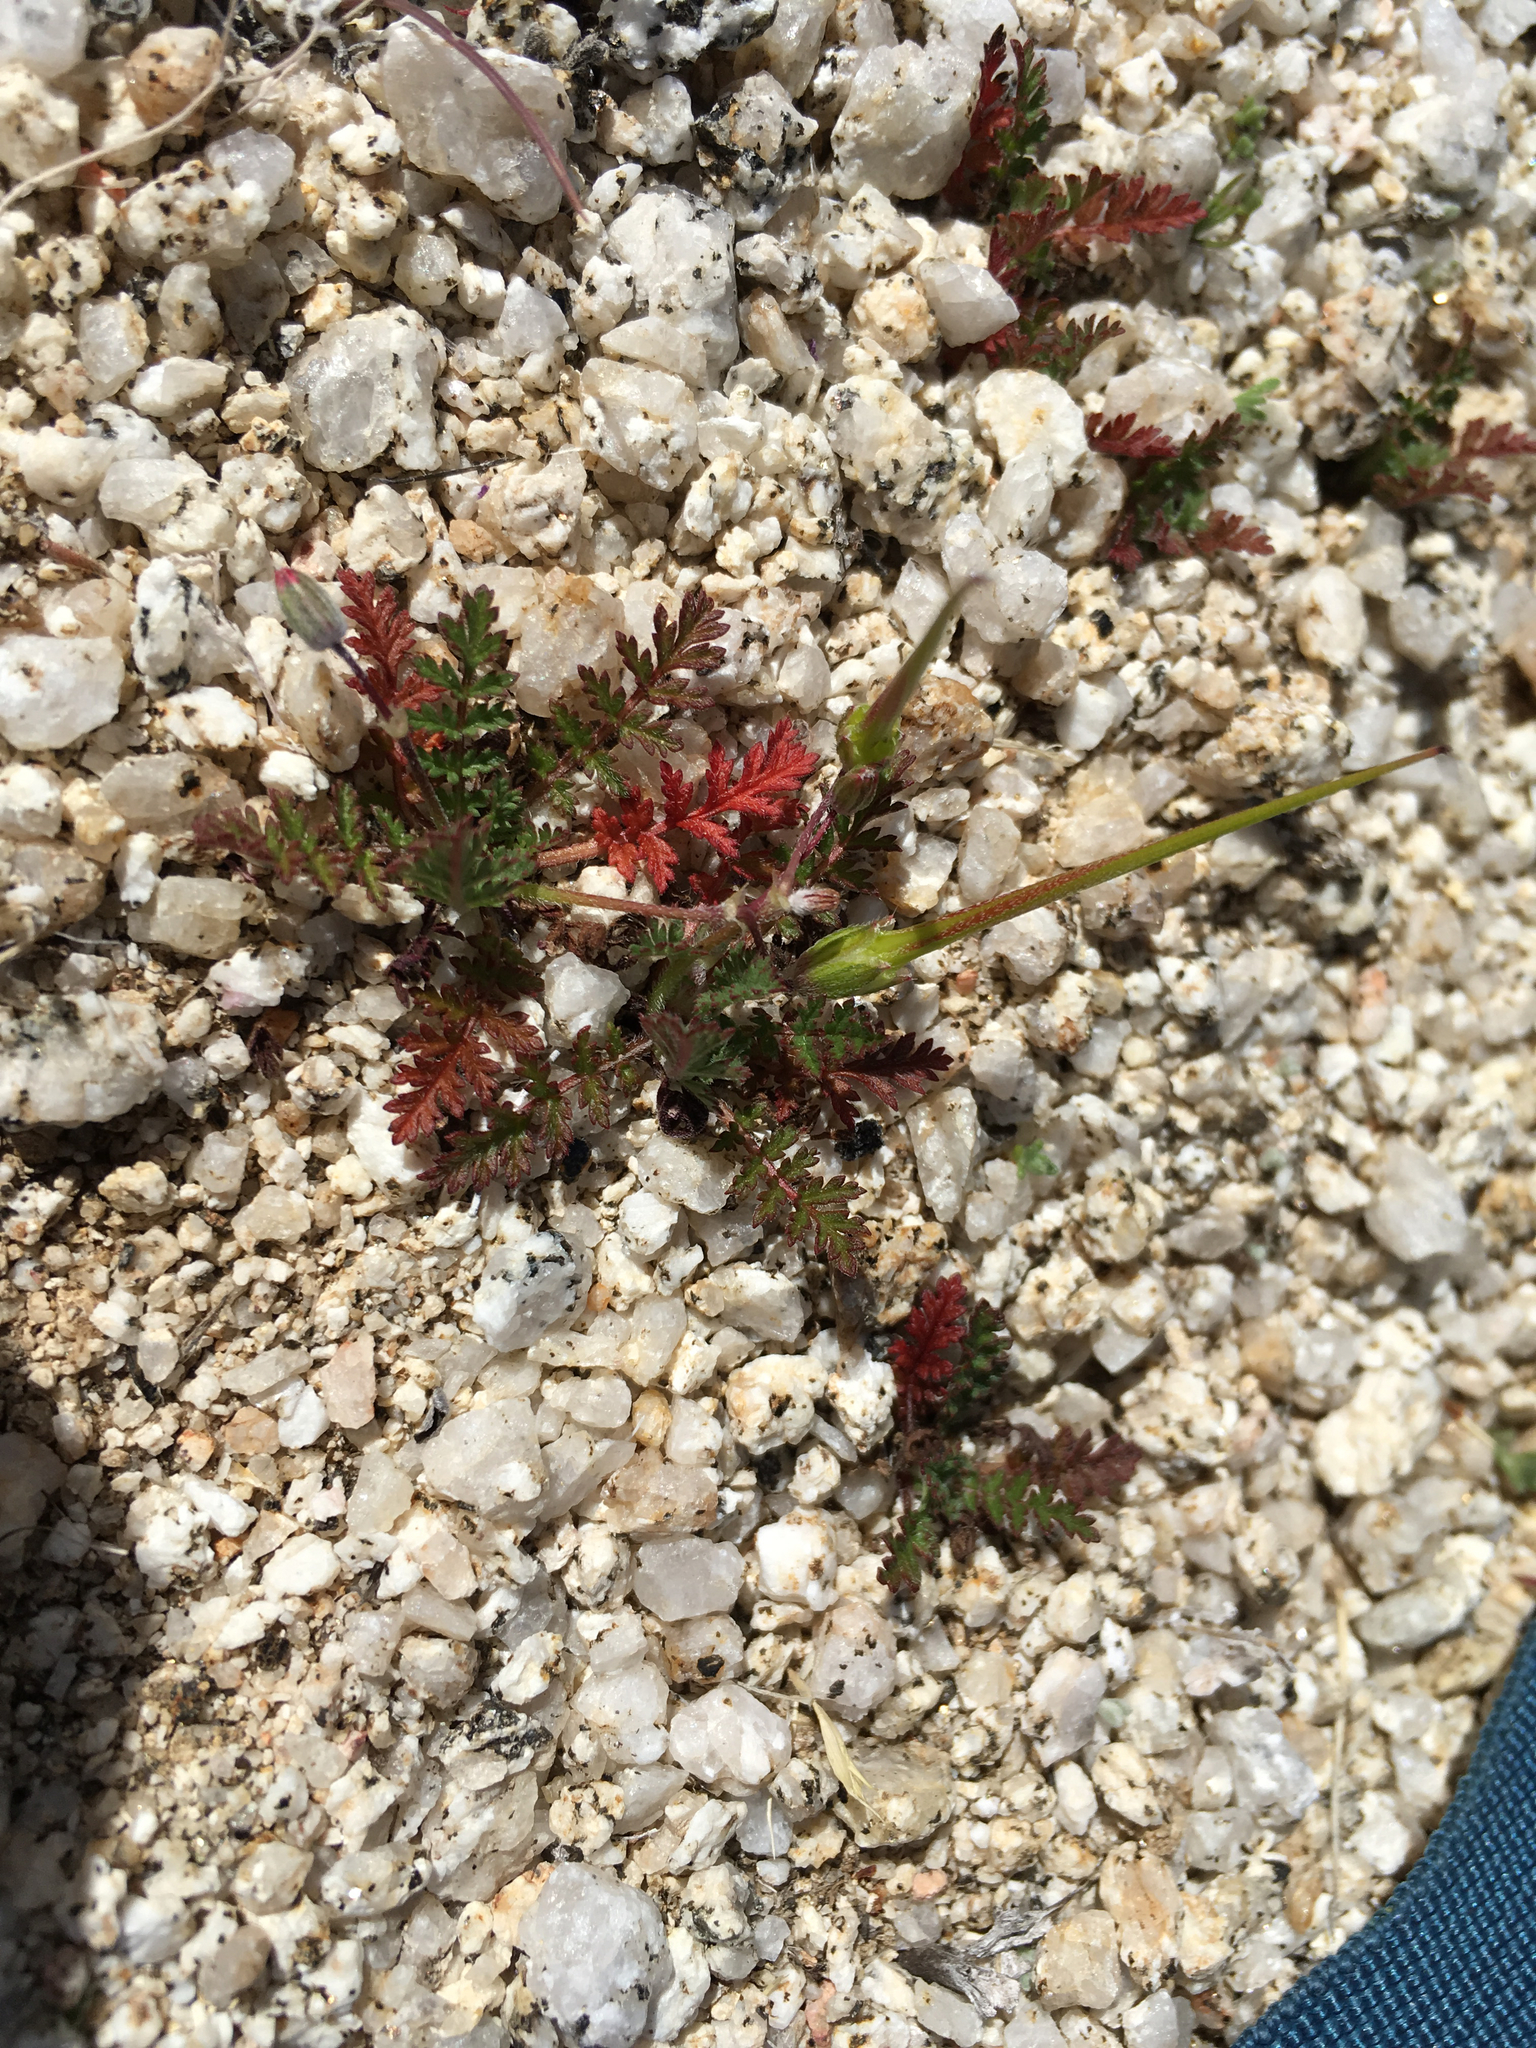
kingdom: Plantae
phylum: Tracheophyta
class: Magnoliopsida
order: Geraniales
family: Geraniaceae
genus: Erodium
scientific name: Erodium cicutarium
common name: Common stork's-bill
